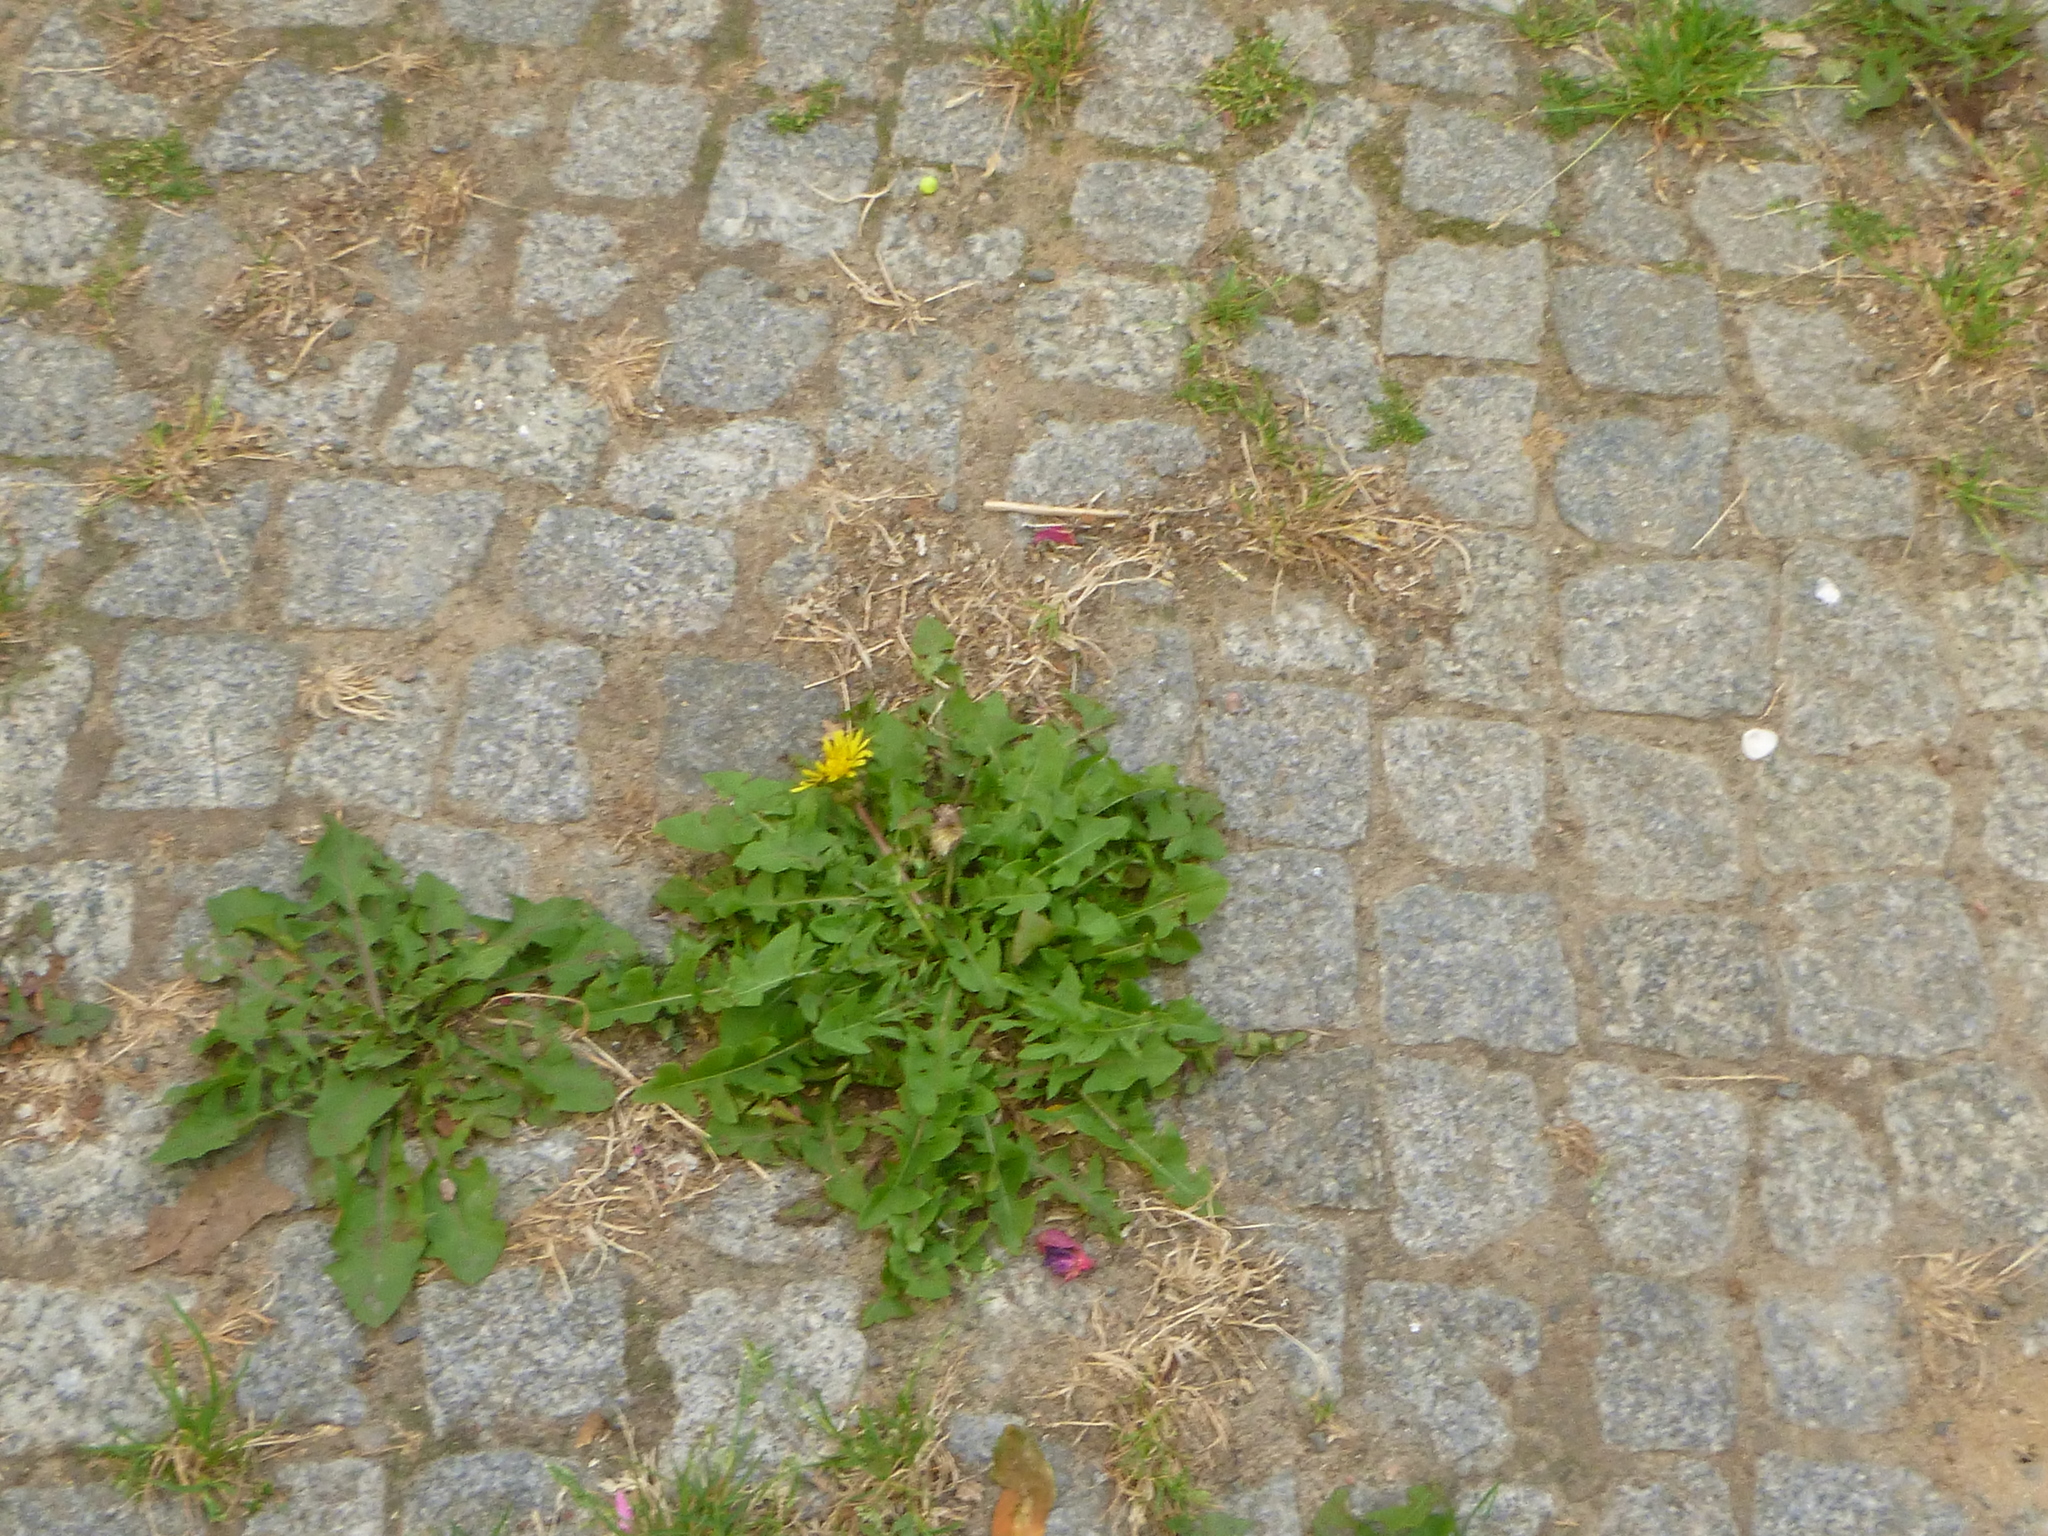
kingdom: Plantae
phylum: Tracheophyta
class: Magnoliopsida
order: Asterales
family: Asteraceae
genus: Taraxacum
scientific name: Taraxacum officinale
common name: Common dandelion
